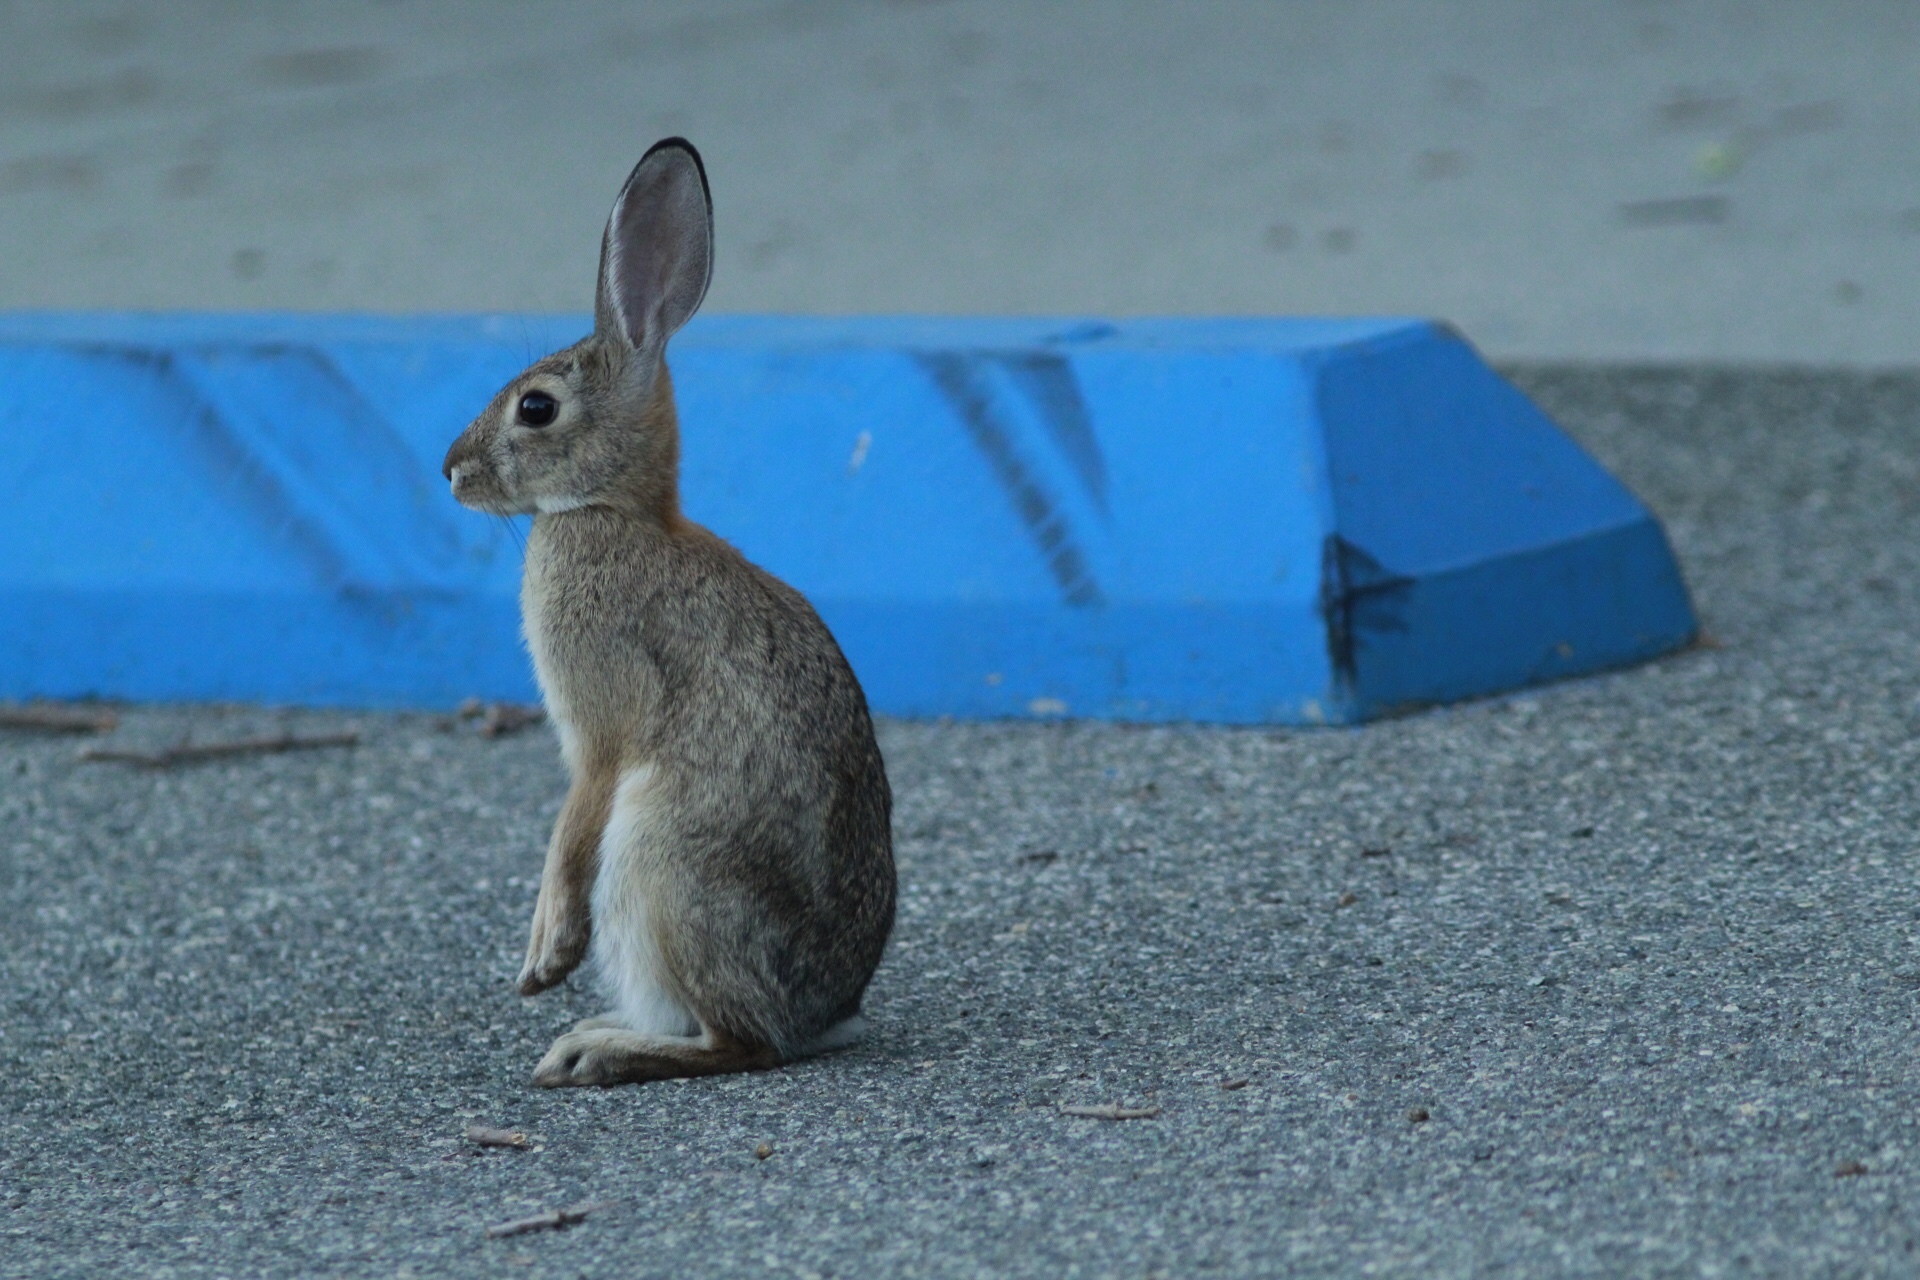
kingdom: Animalia
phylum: Chordata
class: Mammalia
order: Lagomorpha
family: Leporidae
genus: Sylvilagus
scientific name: Sylvilagus audubonii
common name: Desert cottontail
